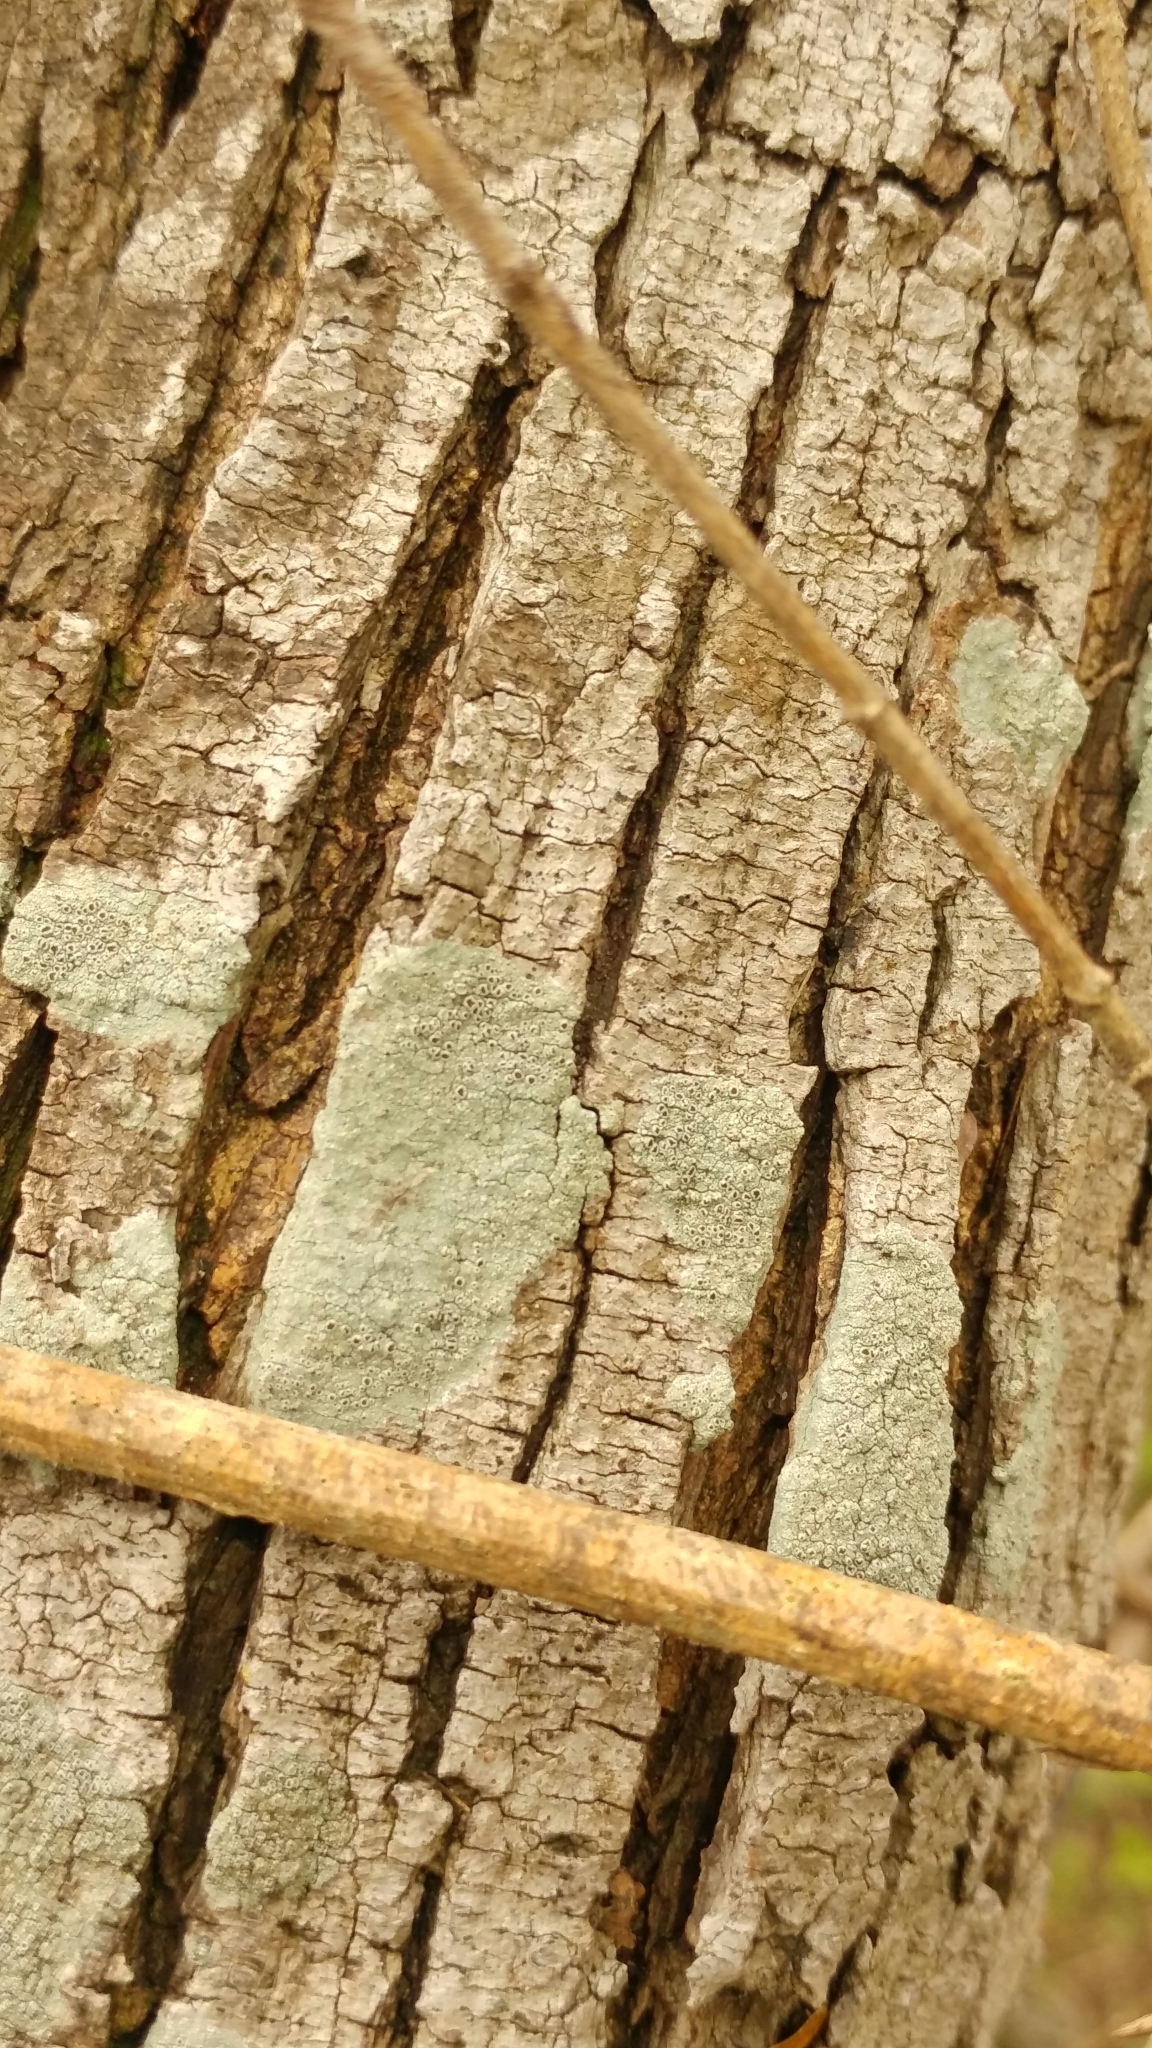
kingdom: Fungi
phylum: Ascomycota
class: Lecanoromycetes
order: Lecanorales
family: Lecanoraceae
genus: Lecanora
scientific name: Lecanora argentata
